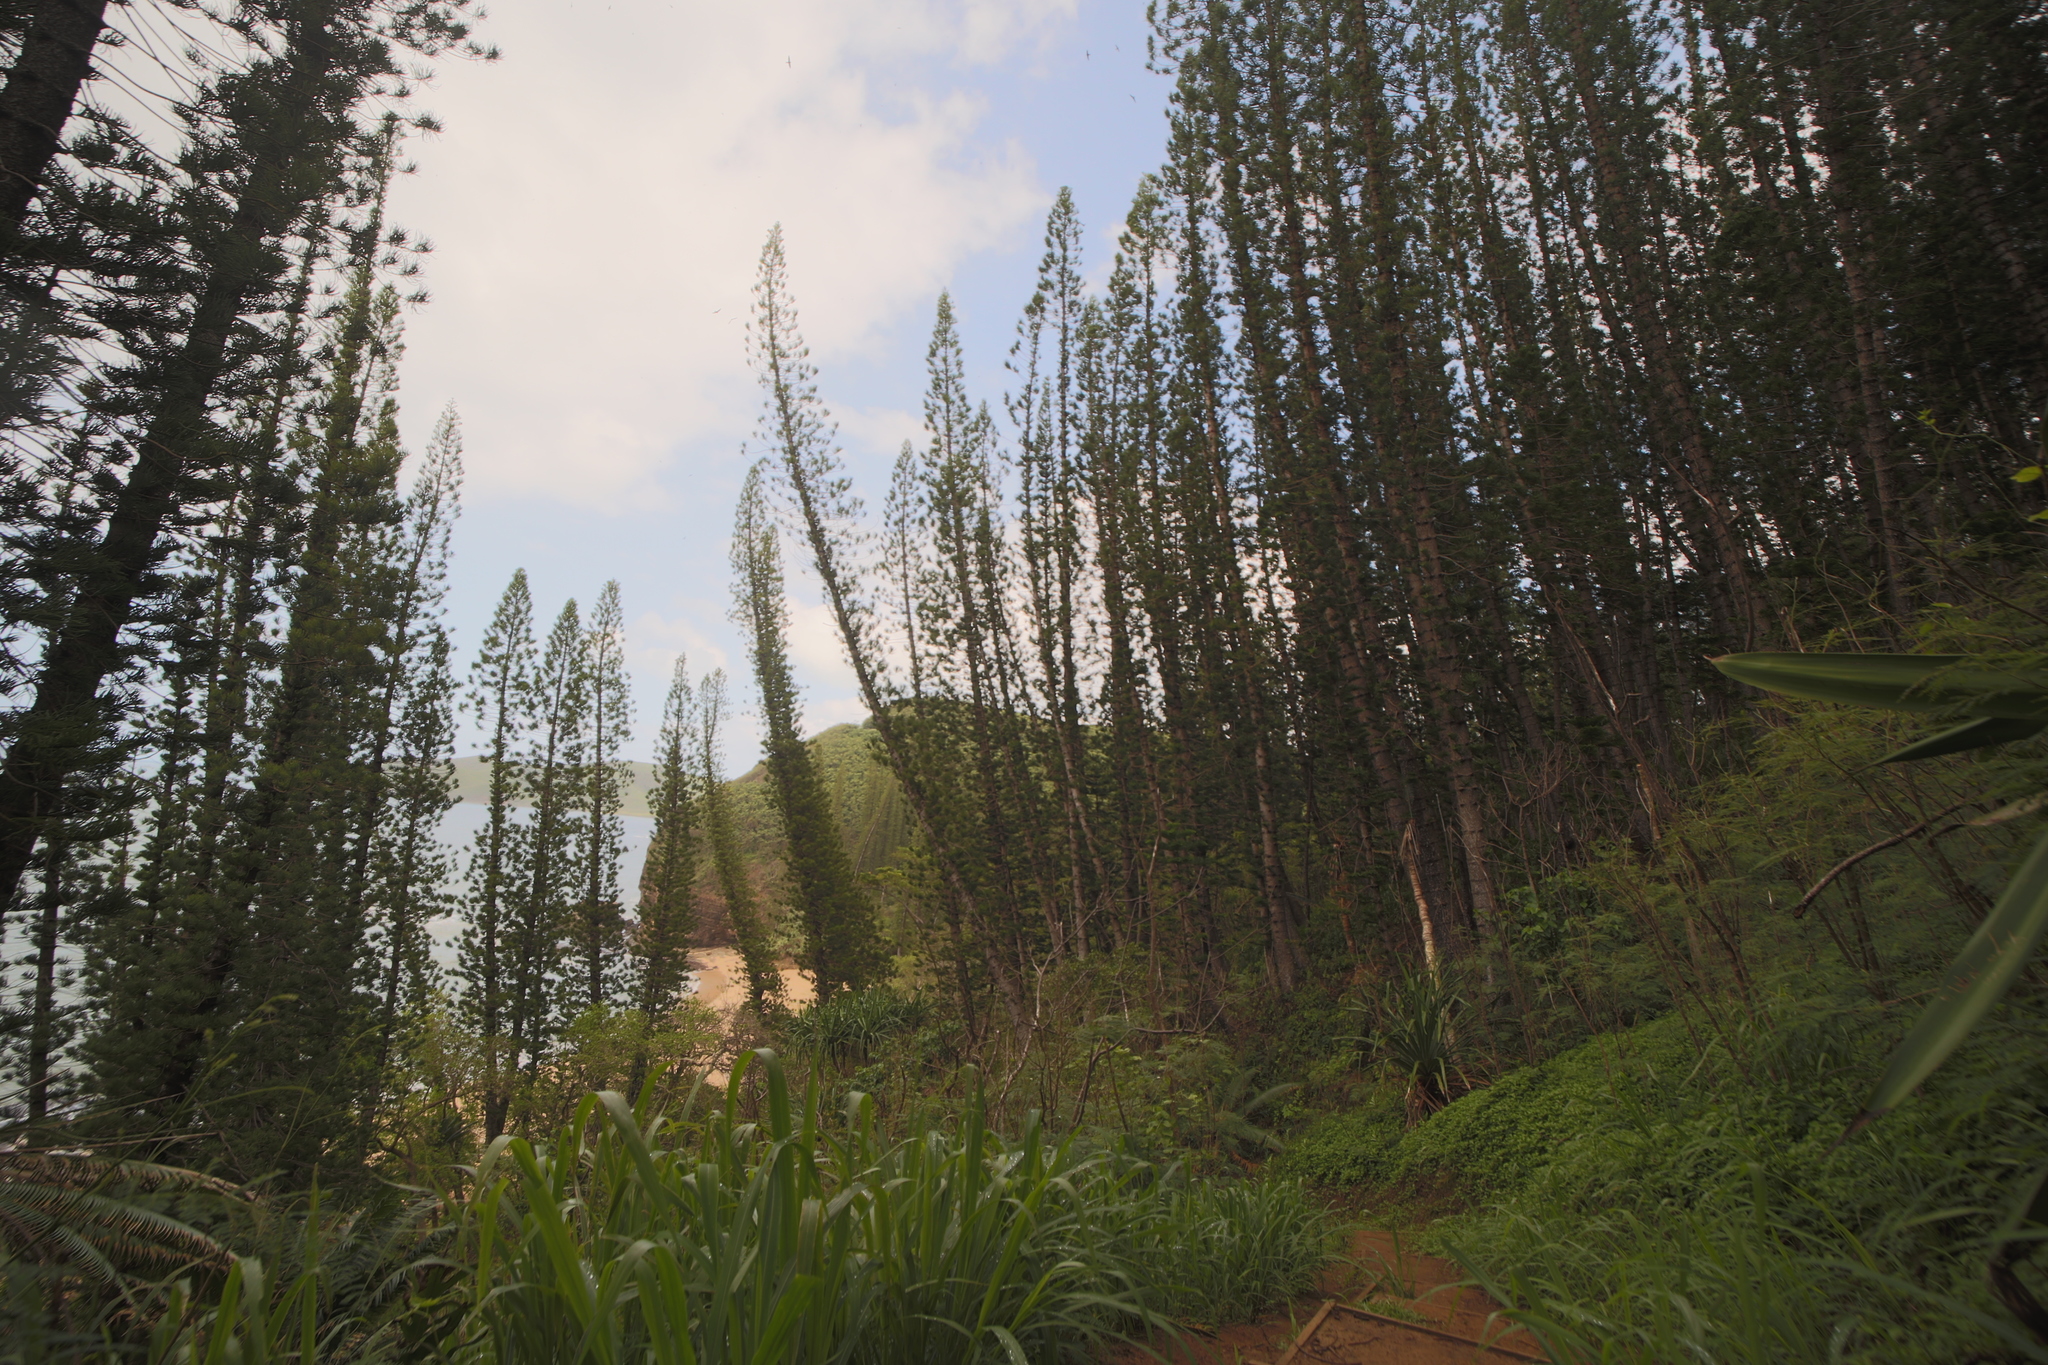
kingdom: Plantae
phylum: Tracheophyta
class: Pinopsida
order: Pinales
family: Araucariaceae
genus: Araucaria
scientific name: Araucaria columnaris
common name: Coral reef araucaria
